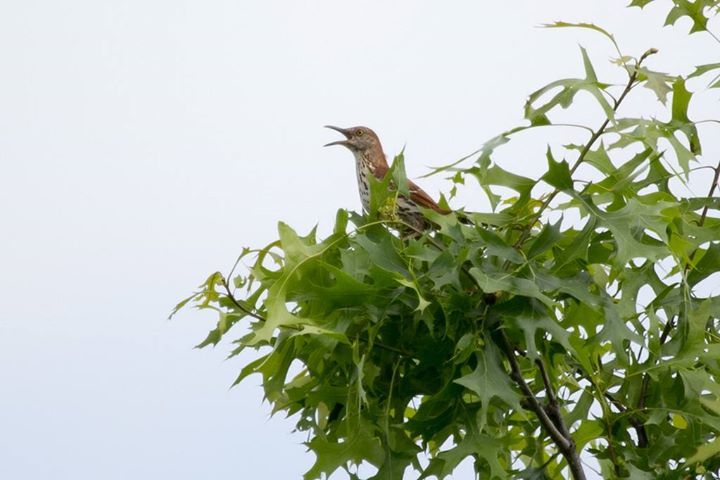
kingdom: Animalia
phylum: Chordata
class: Aves
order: Passeriformes
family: Mimidae
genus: Toxostoma
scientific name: Toxostoma rufum
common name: Brown thrasher
